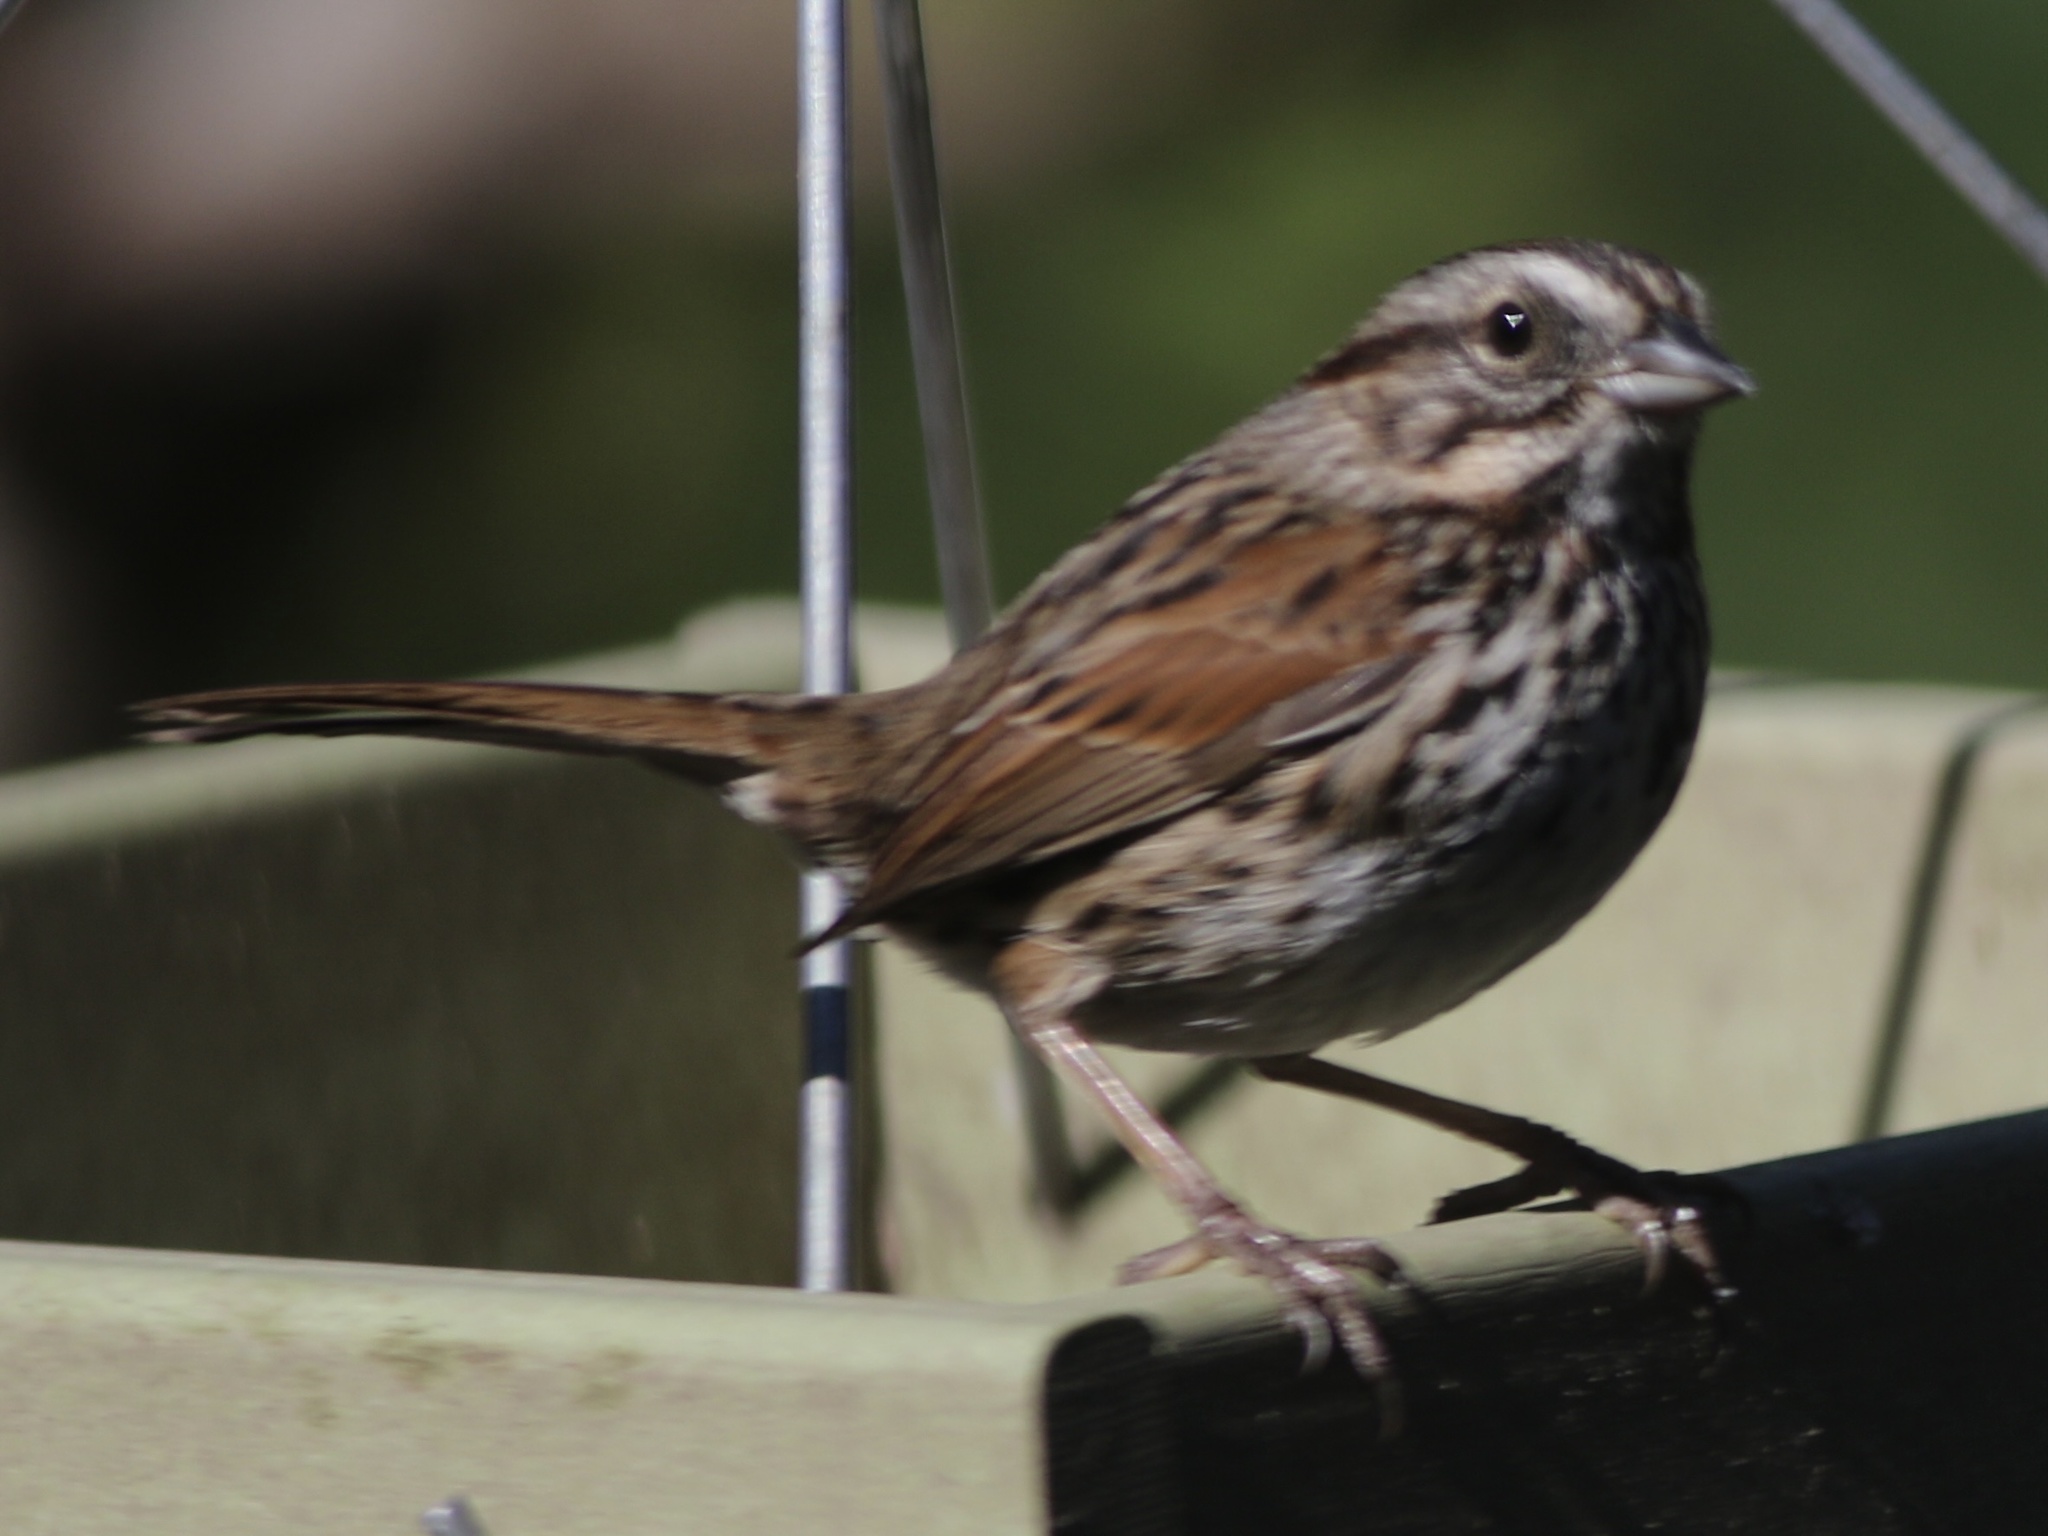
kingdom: Animalia
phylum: Chordata
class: Aves
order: Passeriformes
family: Passerellidae
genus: Melospiza
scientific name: Melospiza melodia
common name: Song sparrow
